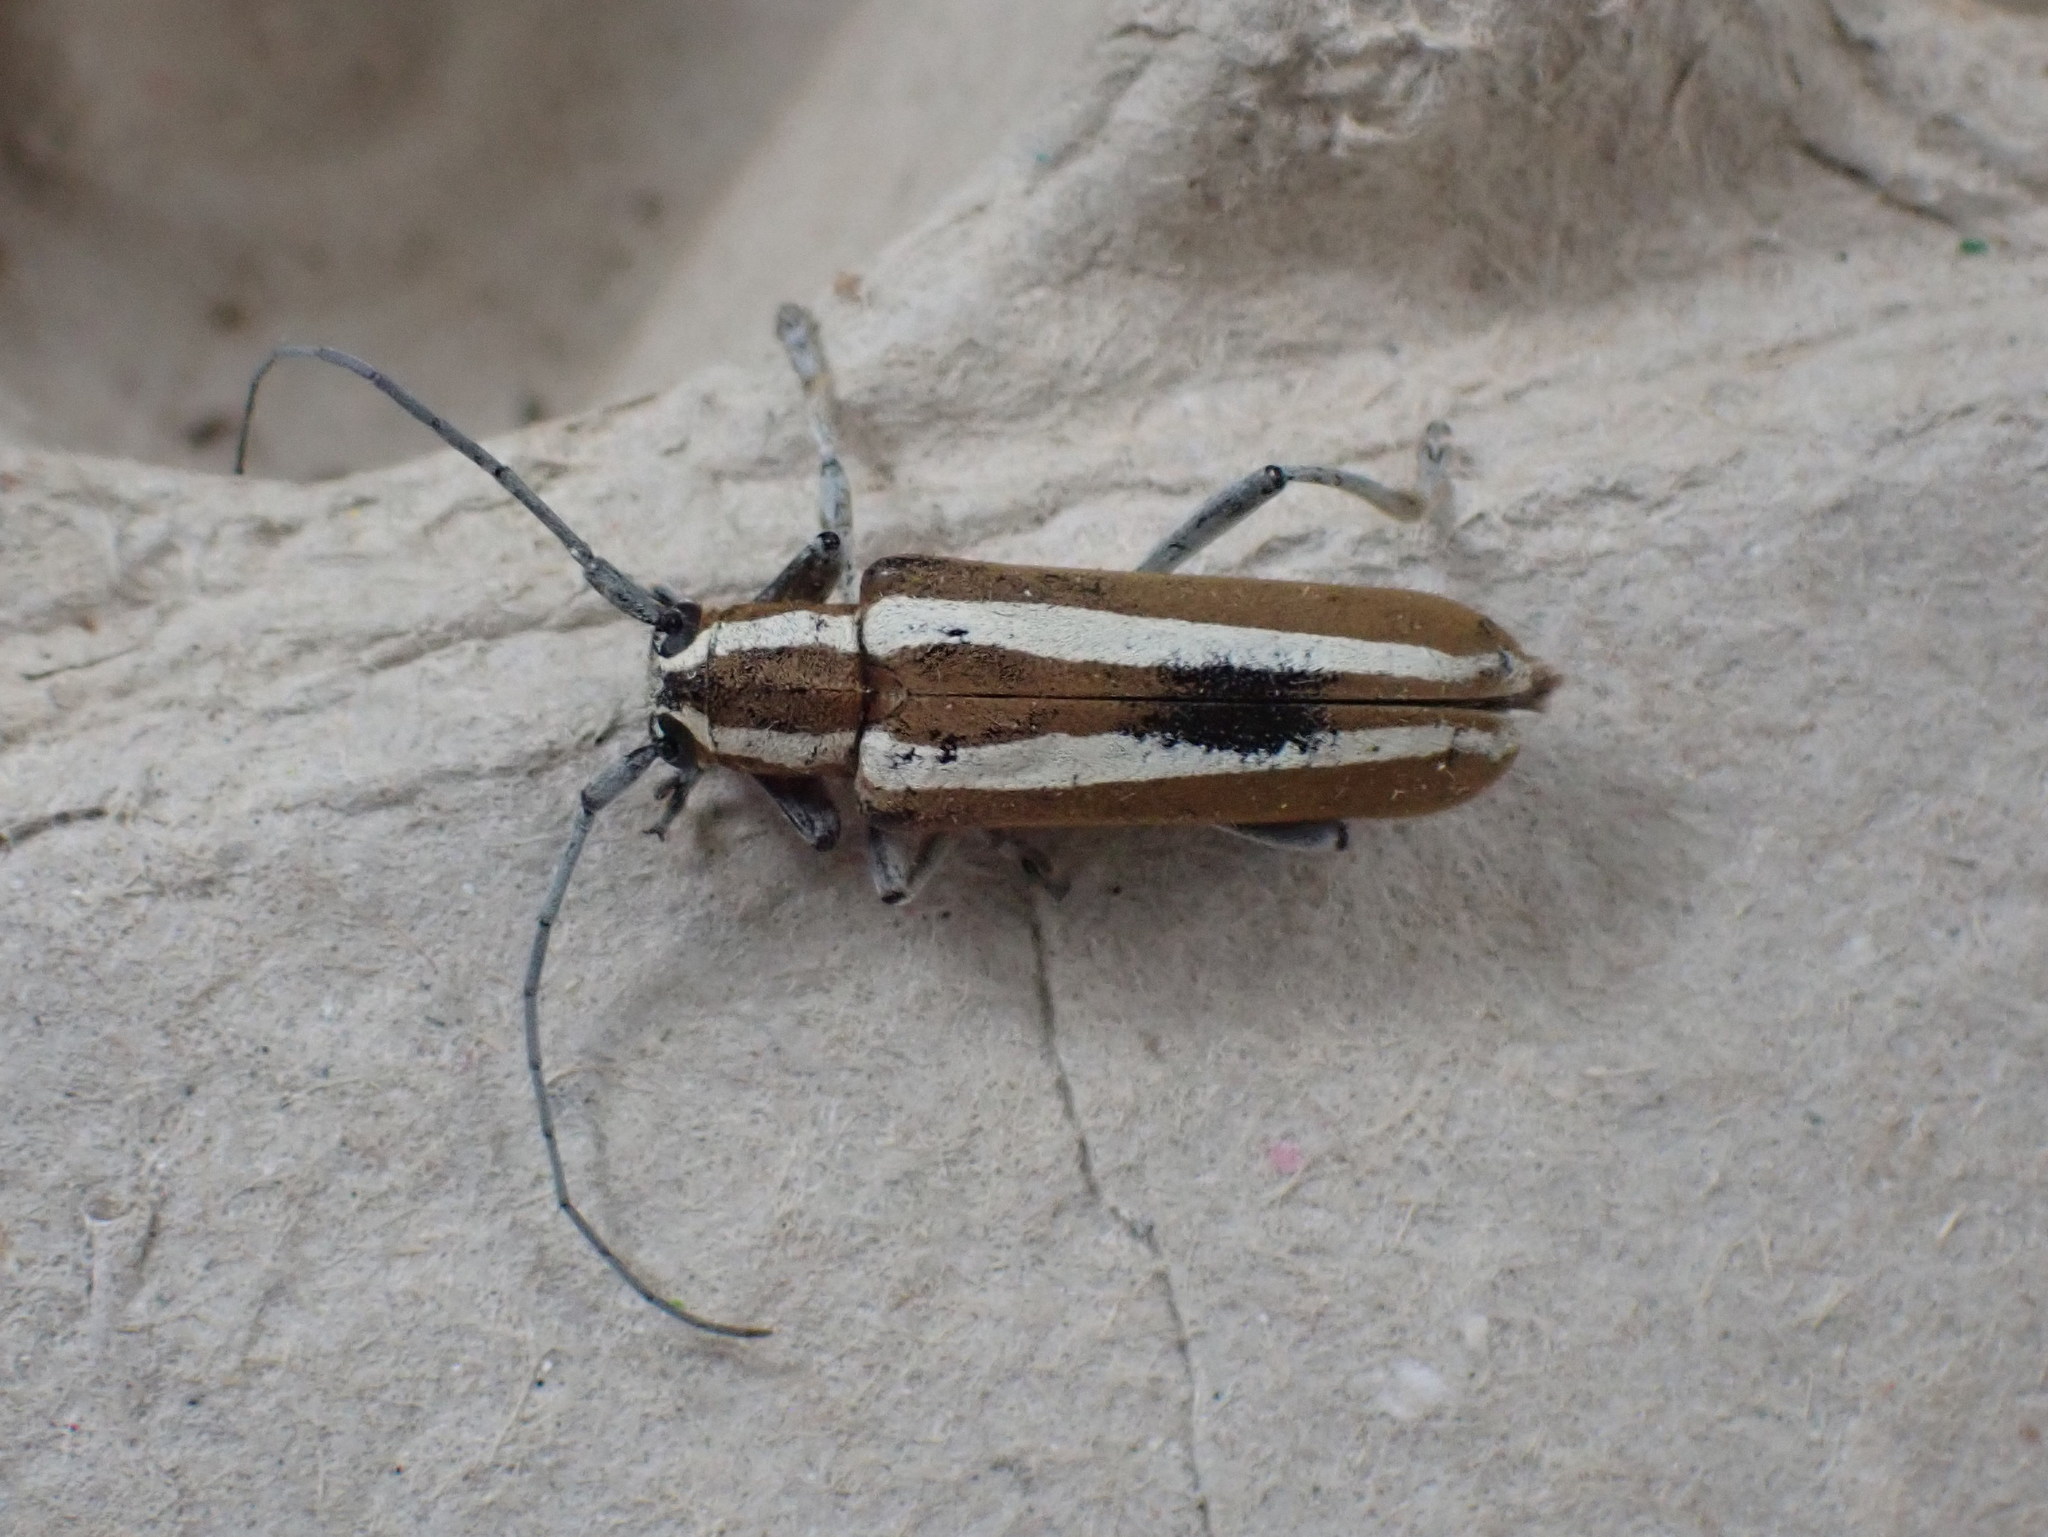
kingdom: Animalia
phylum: Arthropoda
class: Insecta
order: Coleoptera
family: Cerambycidae
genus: Saperda
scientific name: Saperda candida
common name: Round-headed borer
